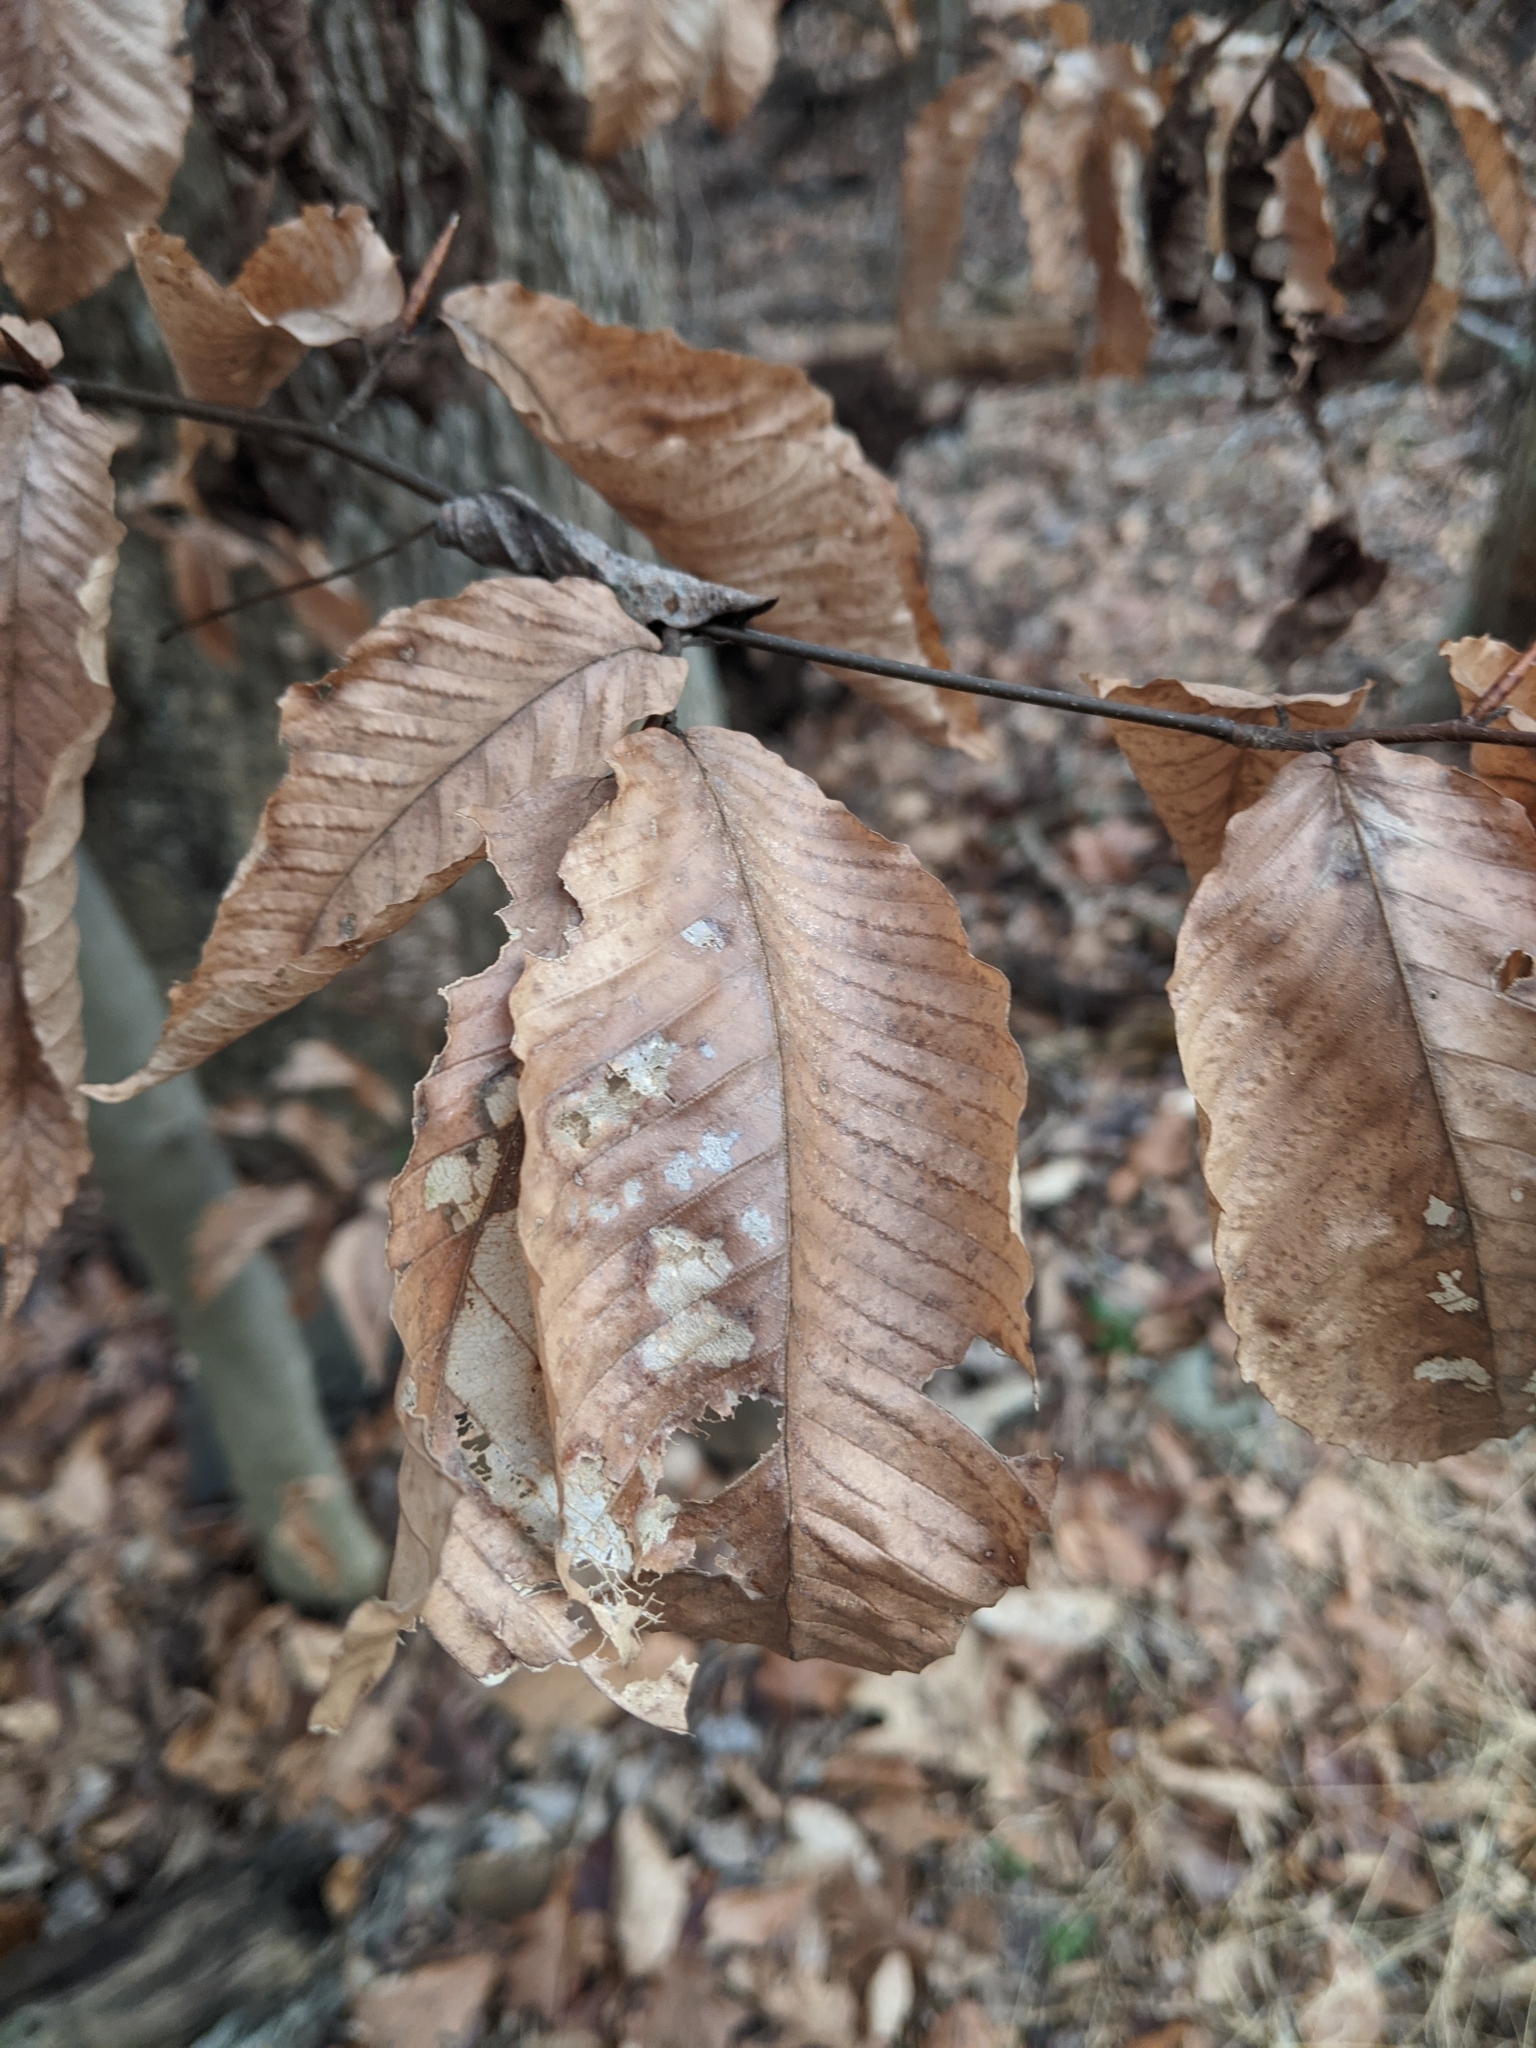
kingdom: Plantae
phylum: Tracheophyta
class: Magnoliopsida
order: Fagales
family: Fagaceae
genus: Fagus
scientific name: Fagus grandifolia
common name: American beech
